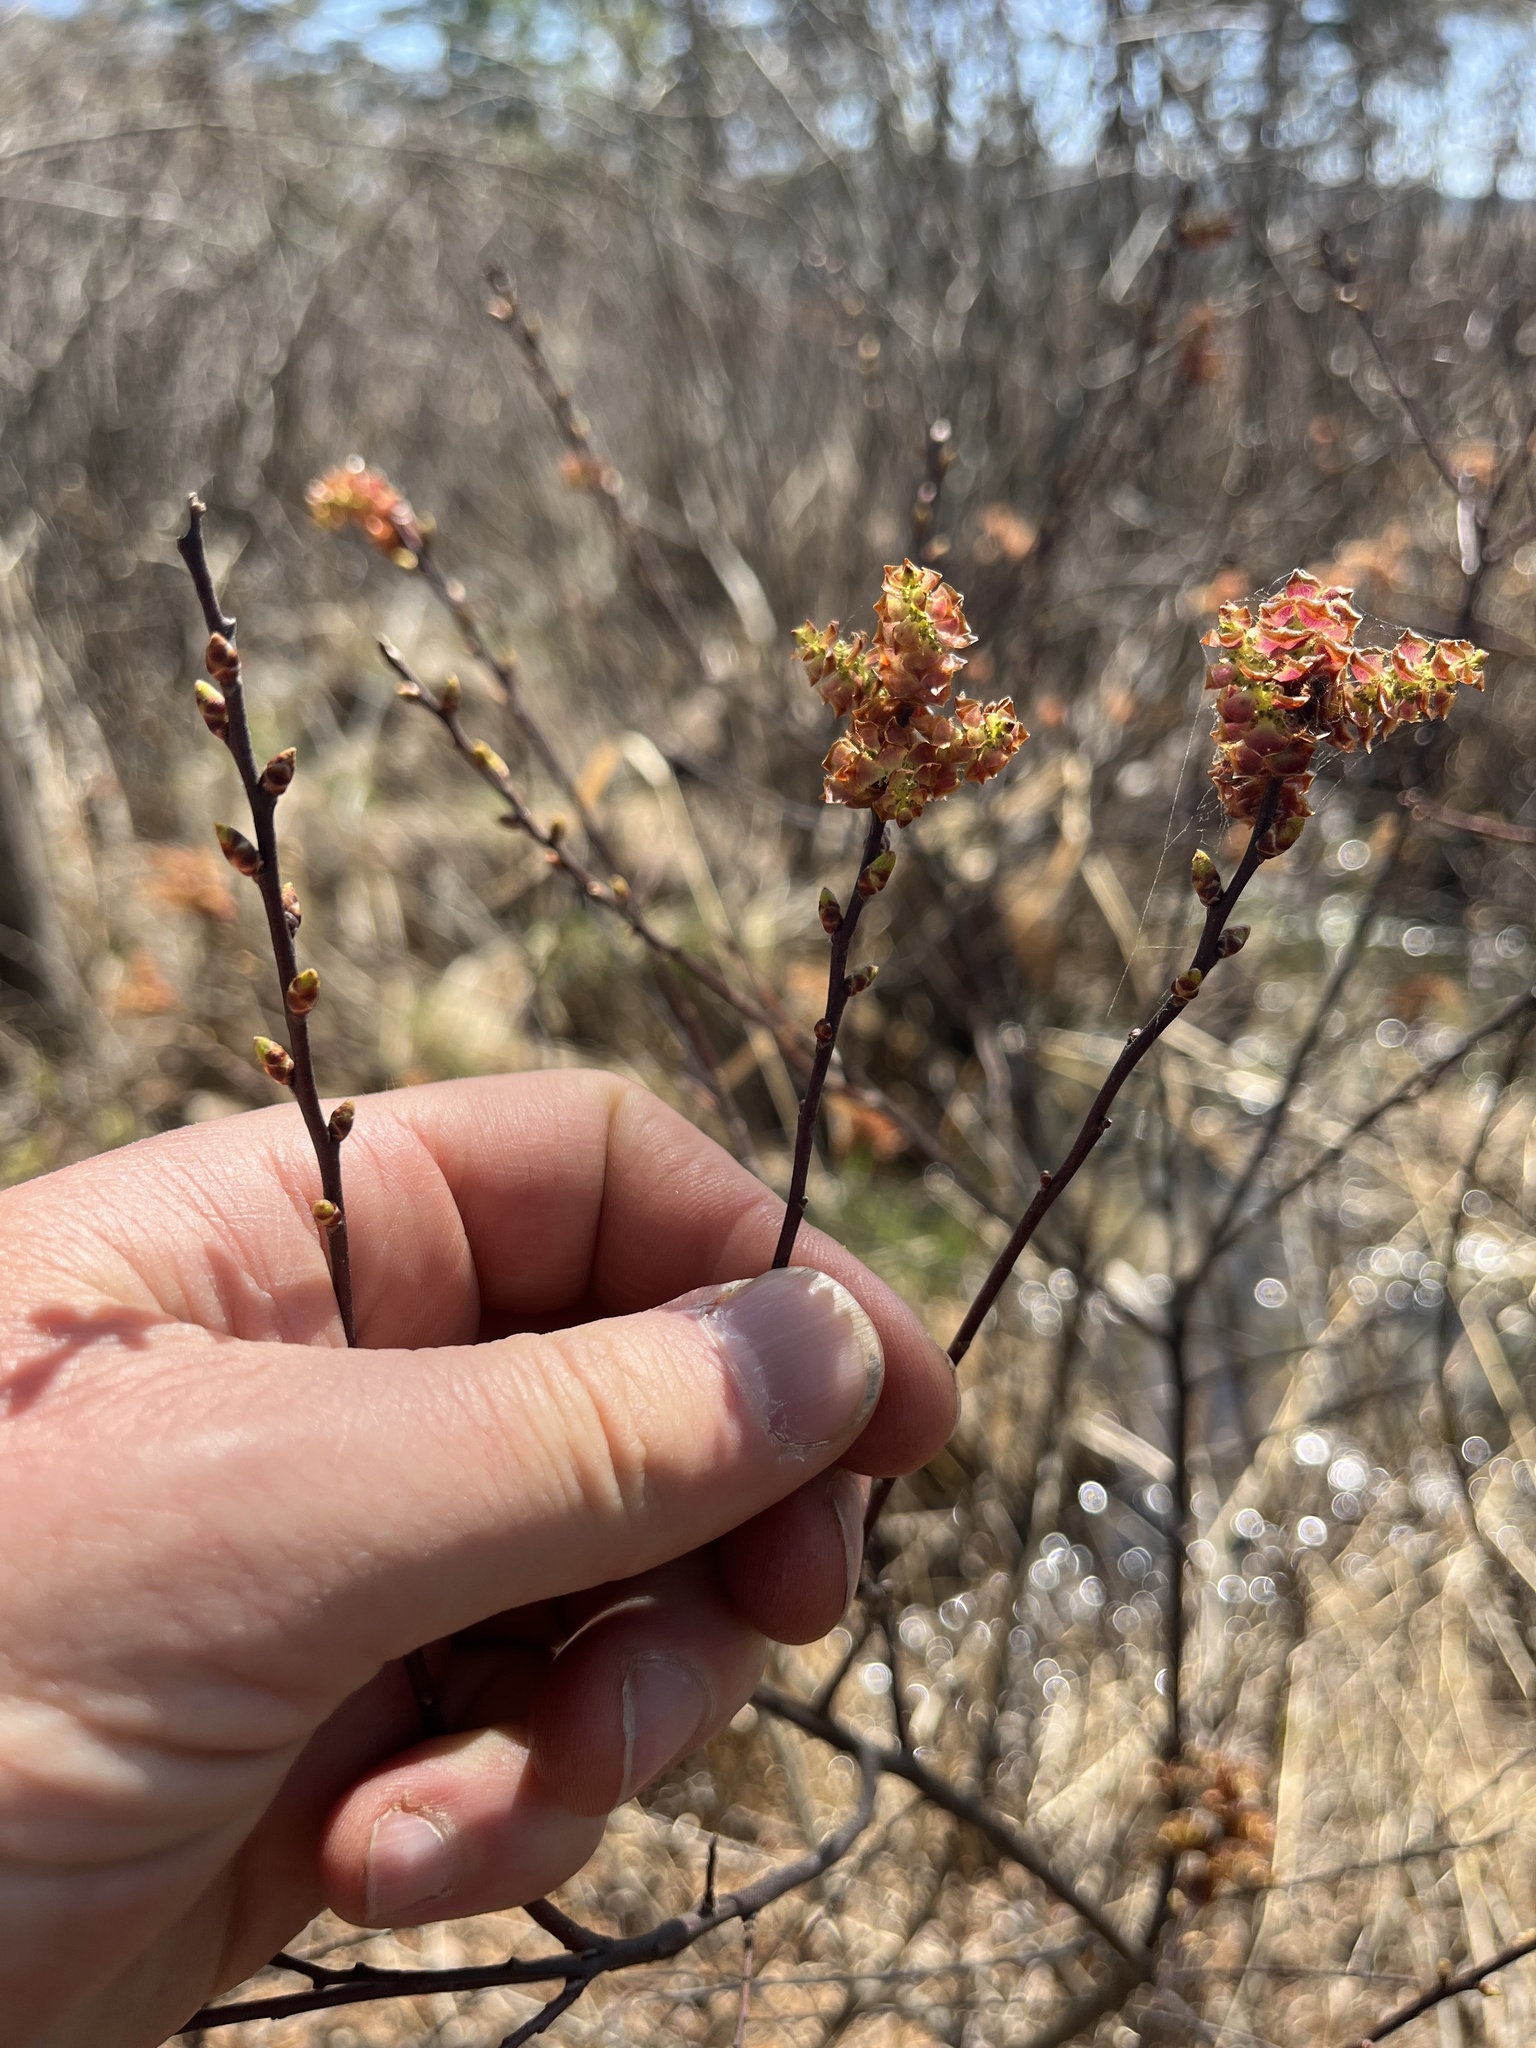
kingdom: Plantae
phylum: Tracheophyta
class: Magnoliopsida
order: Fagales
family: Myricaceae
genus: Myrica
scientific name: Myrica gale
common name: Sweet gale
